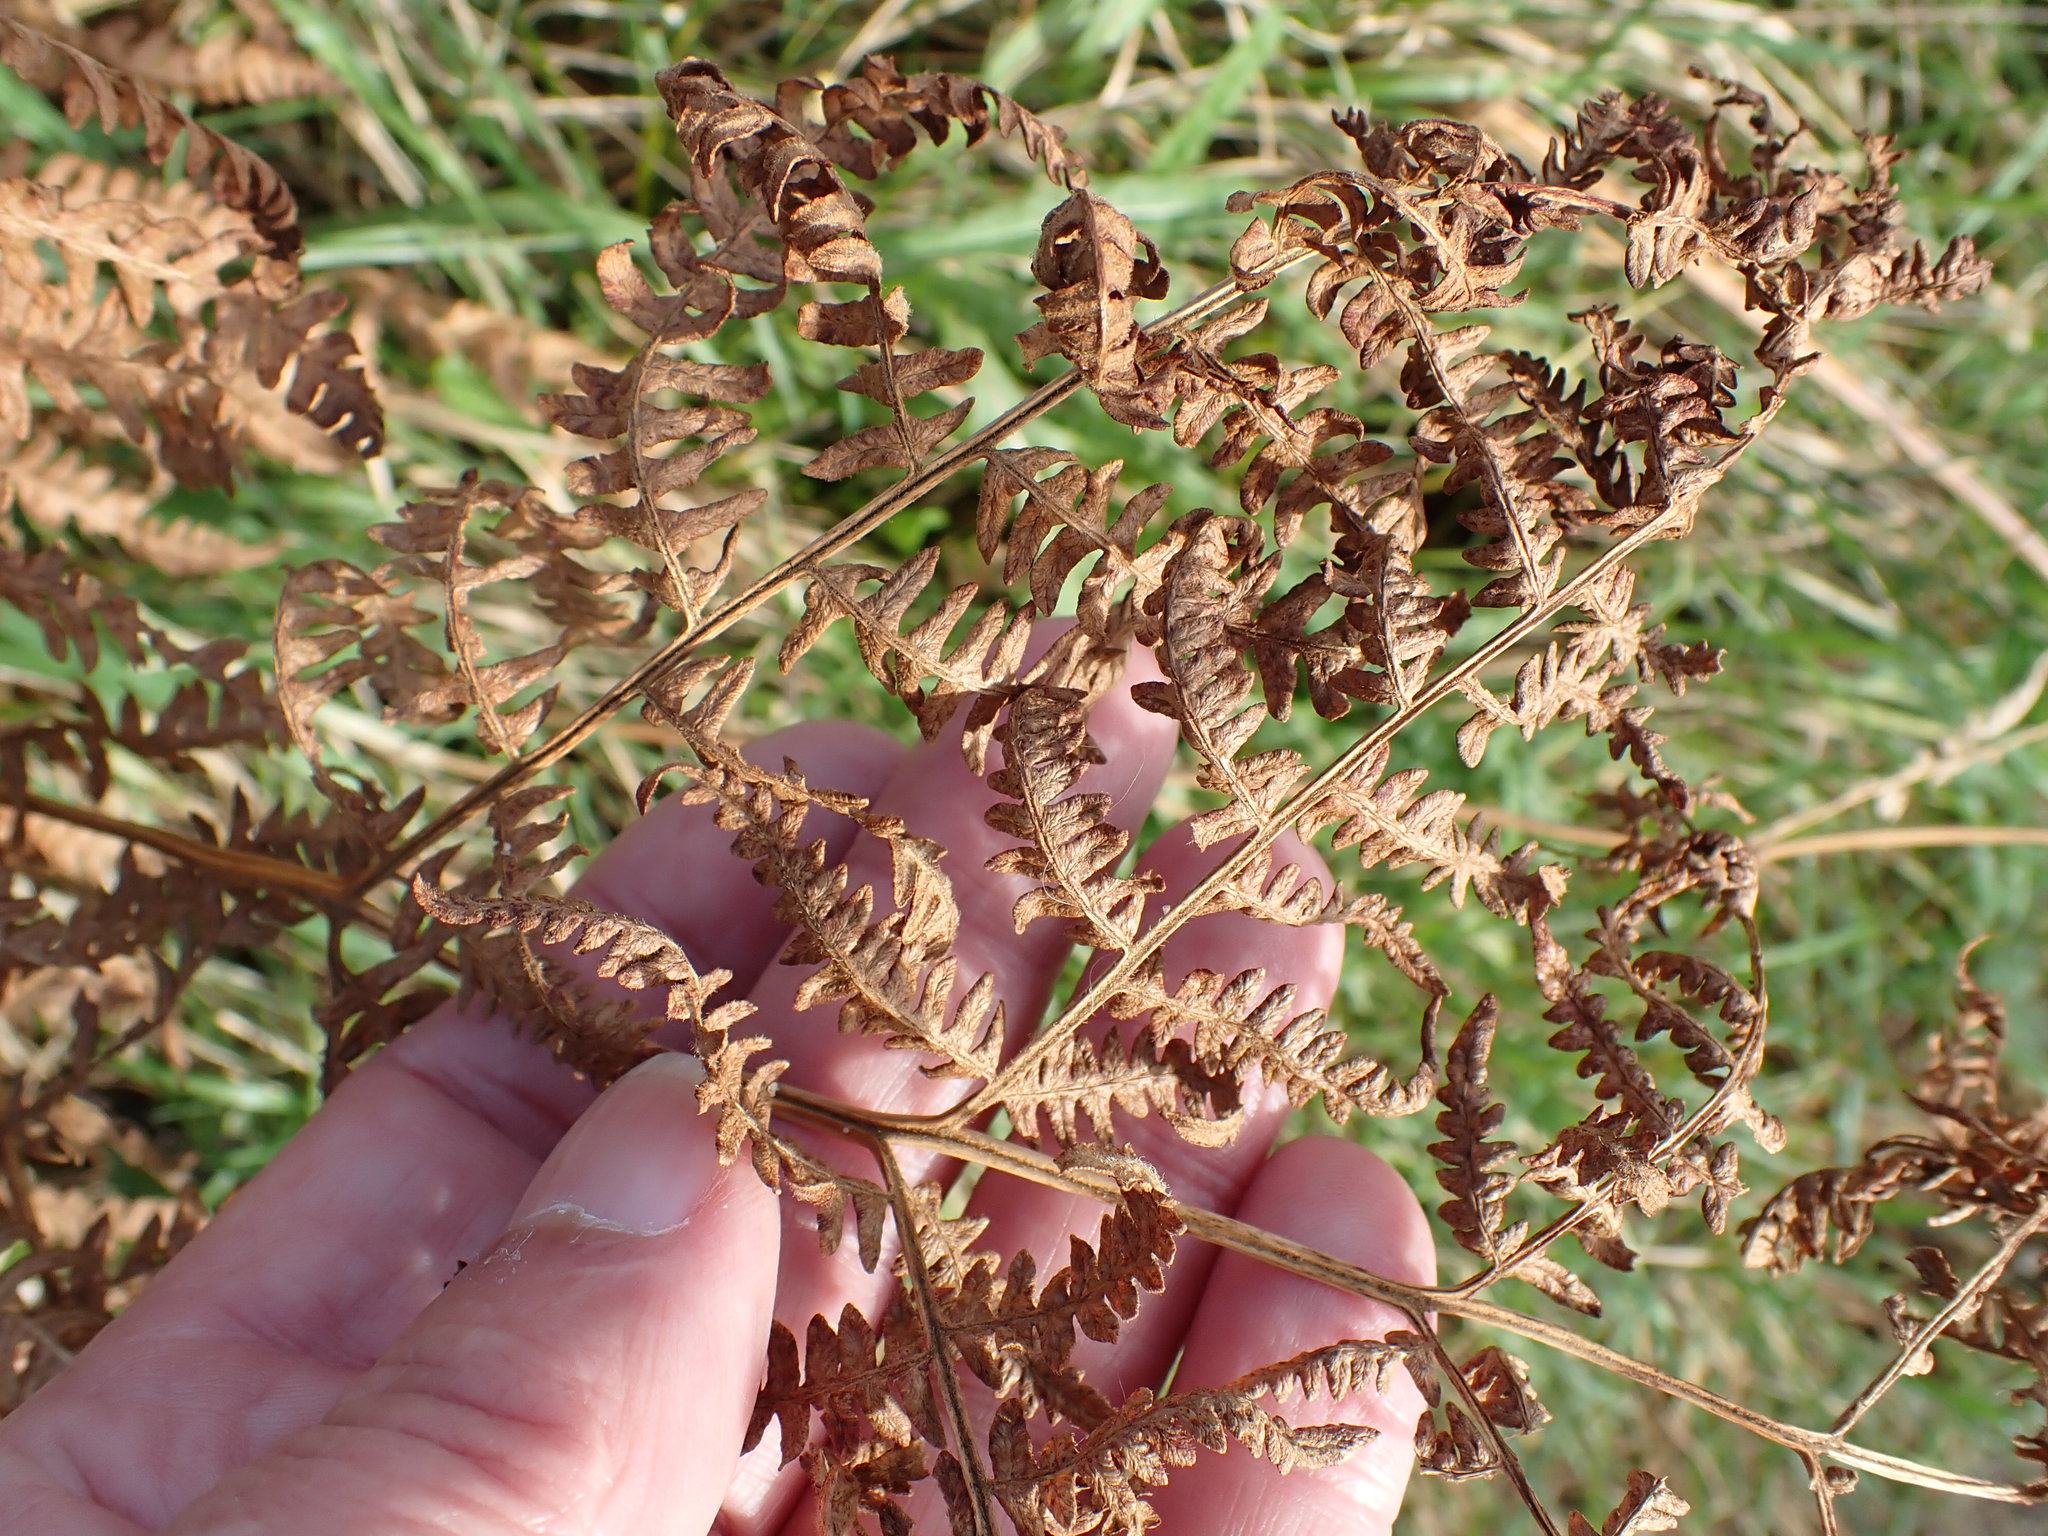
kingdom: Plantae
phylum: Tracheophyta
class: Polypodiopsida
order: Polypodiales
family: Dennstaedtiaceae
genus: Pteridium
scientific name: Pteridium aquilinum
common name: Bracken
